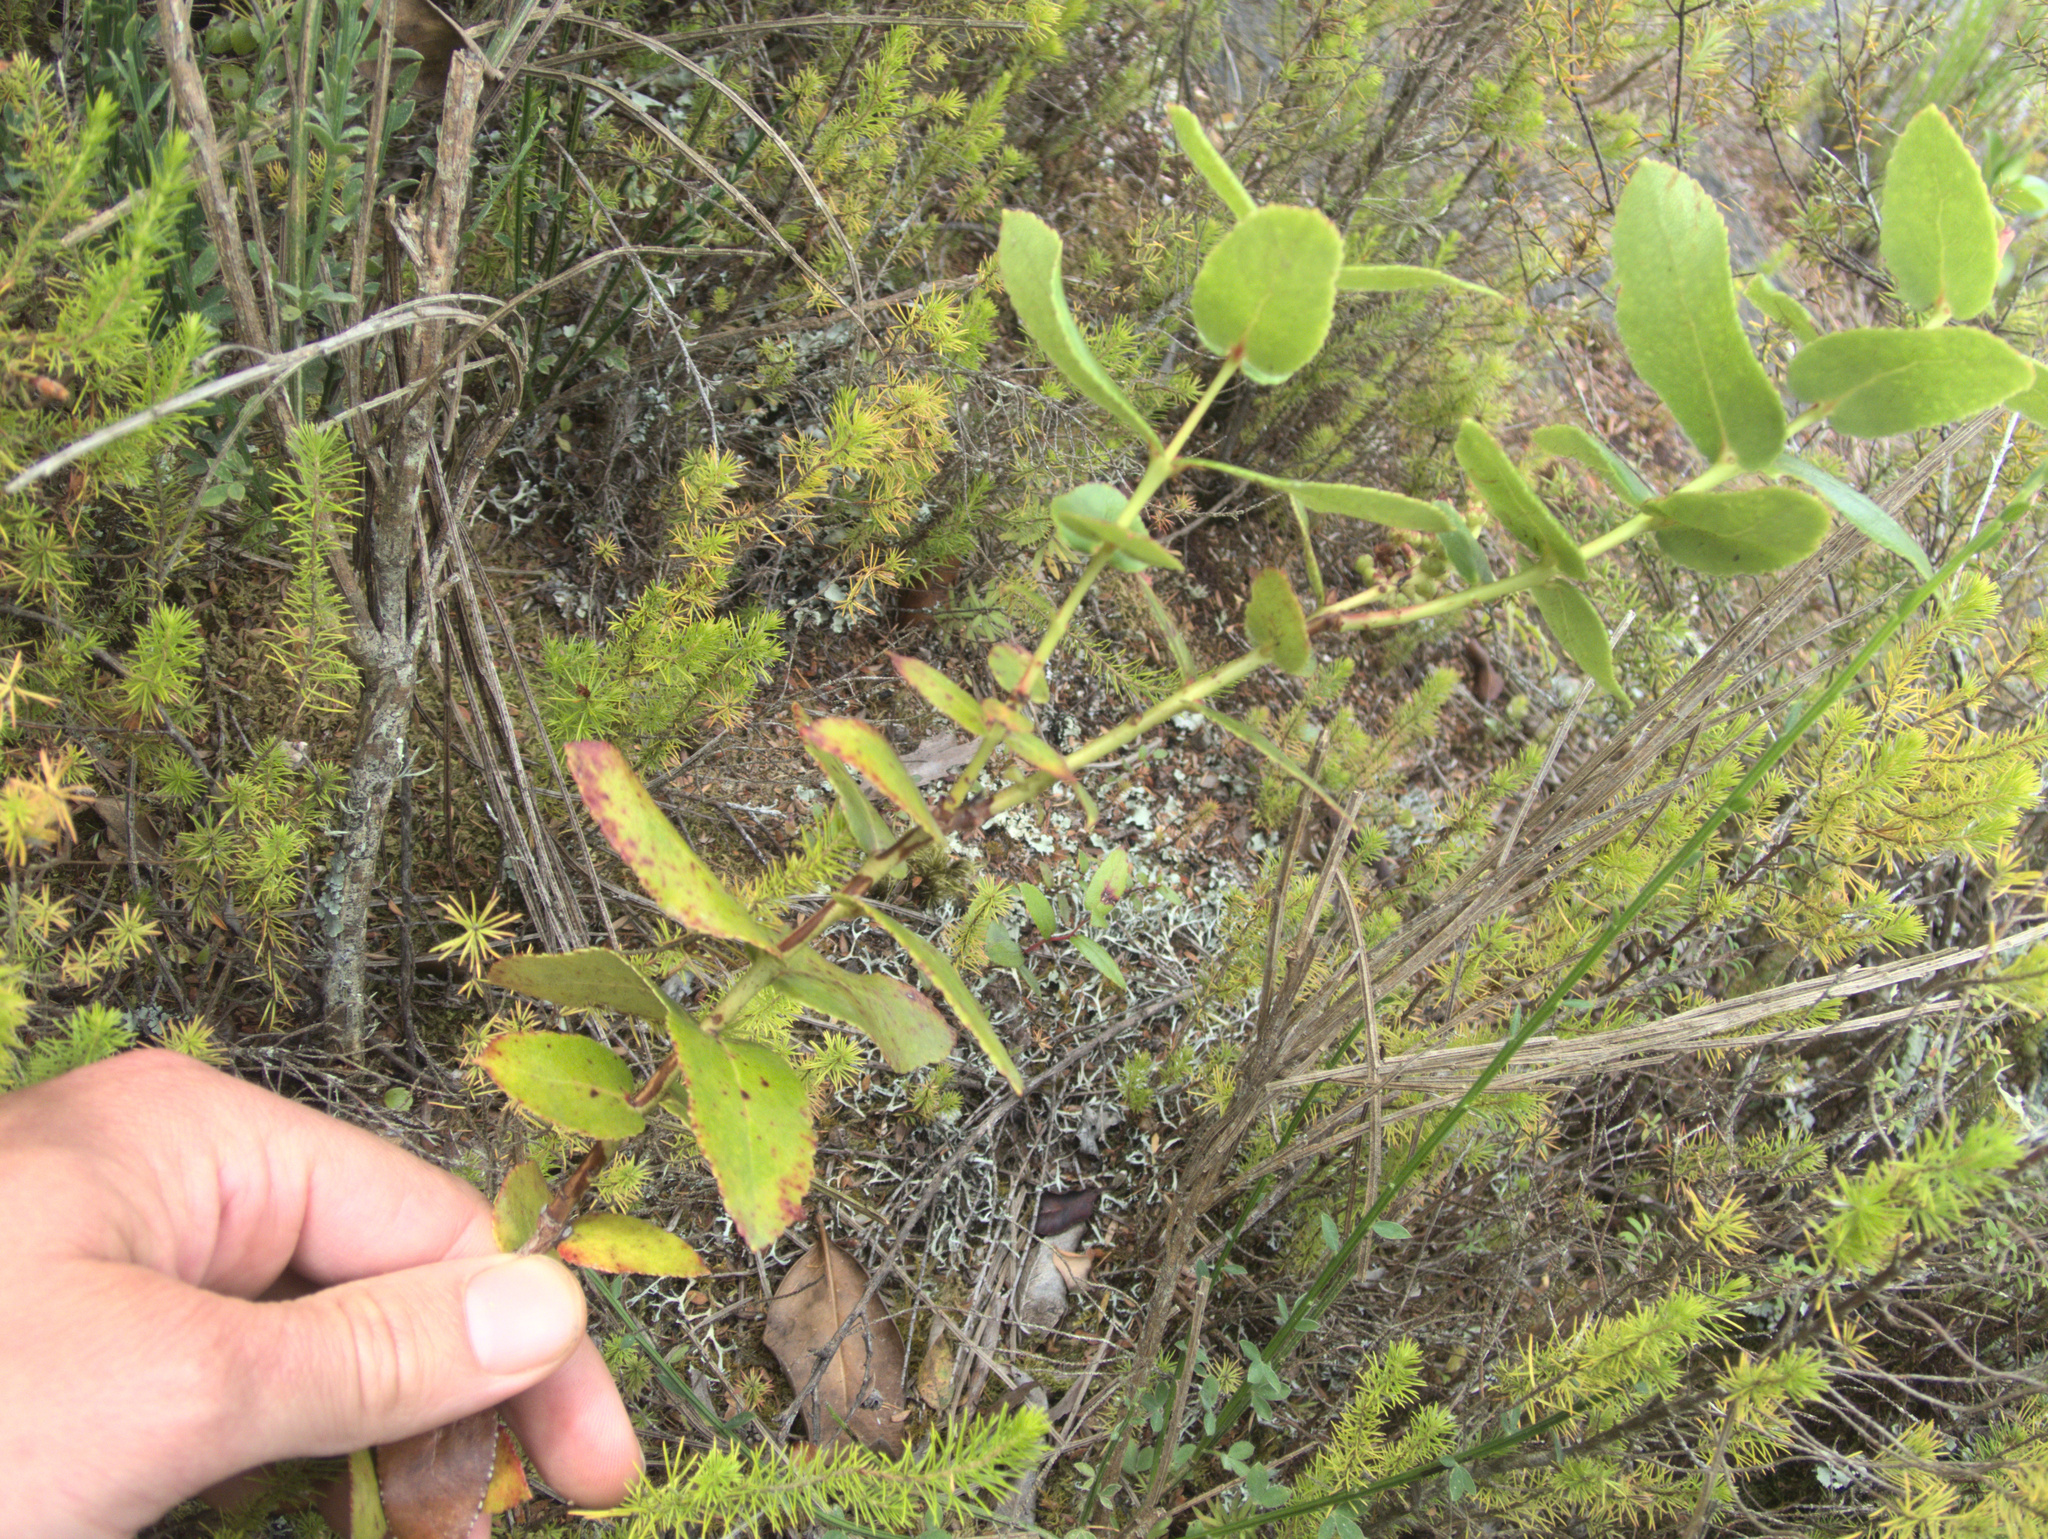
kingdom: Plantae
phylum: Tracheophyta
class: Magnoliopsida
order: Ericales
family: Ericaceae
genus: Gaultheria
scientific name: Gaultheria oppositifolia
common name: Snowberry
